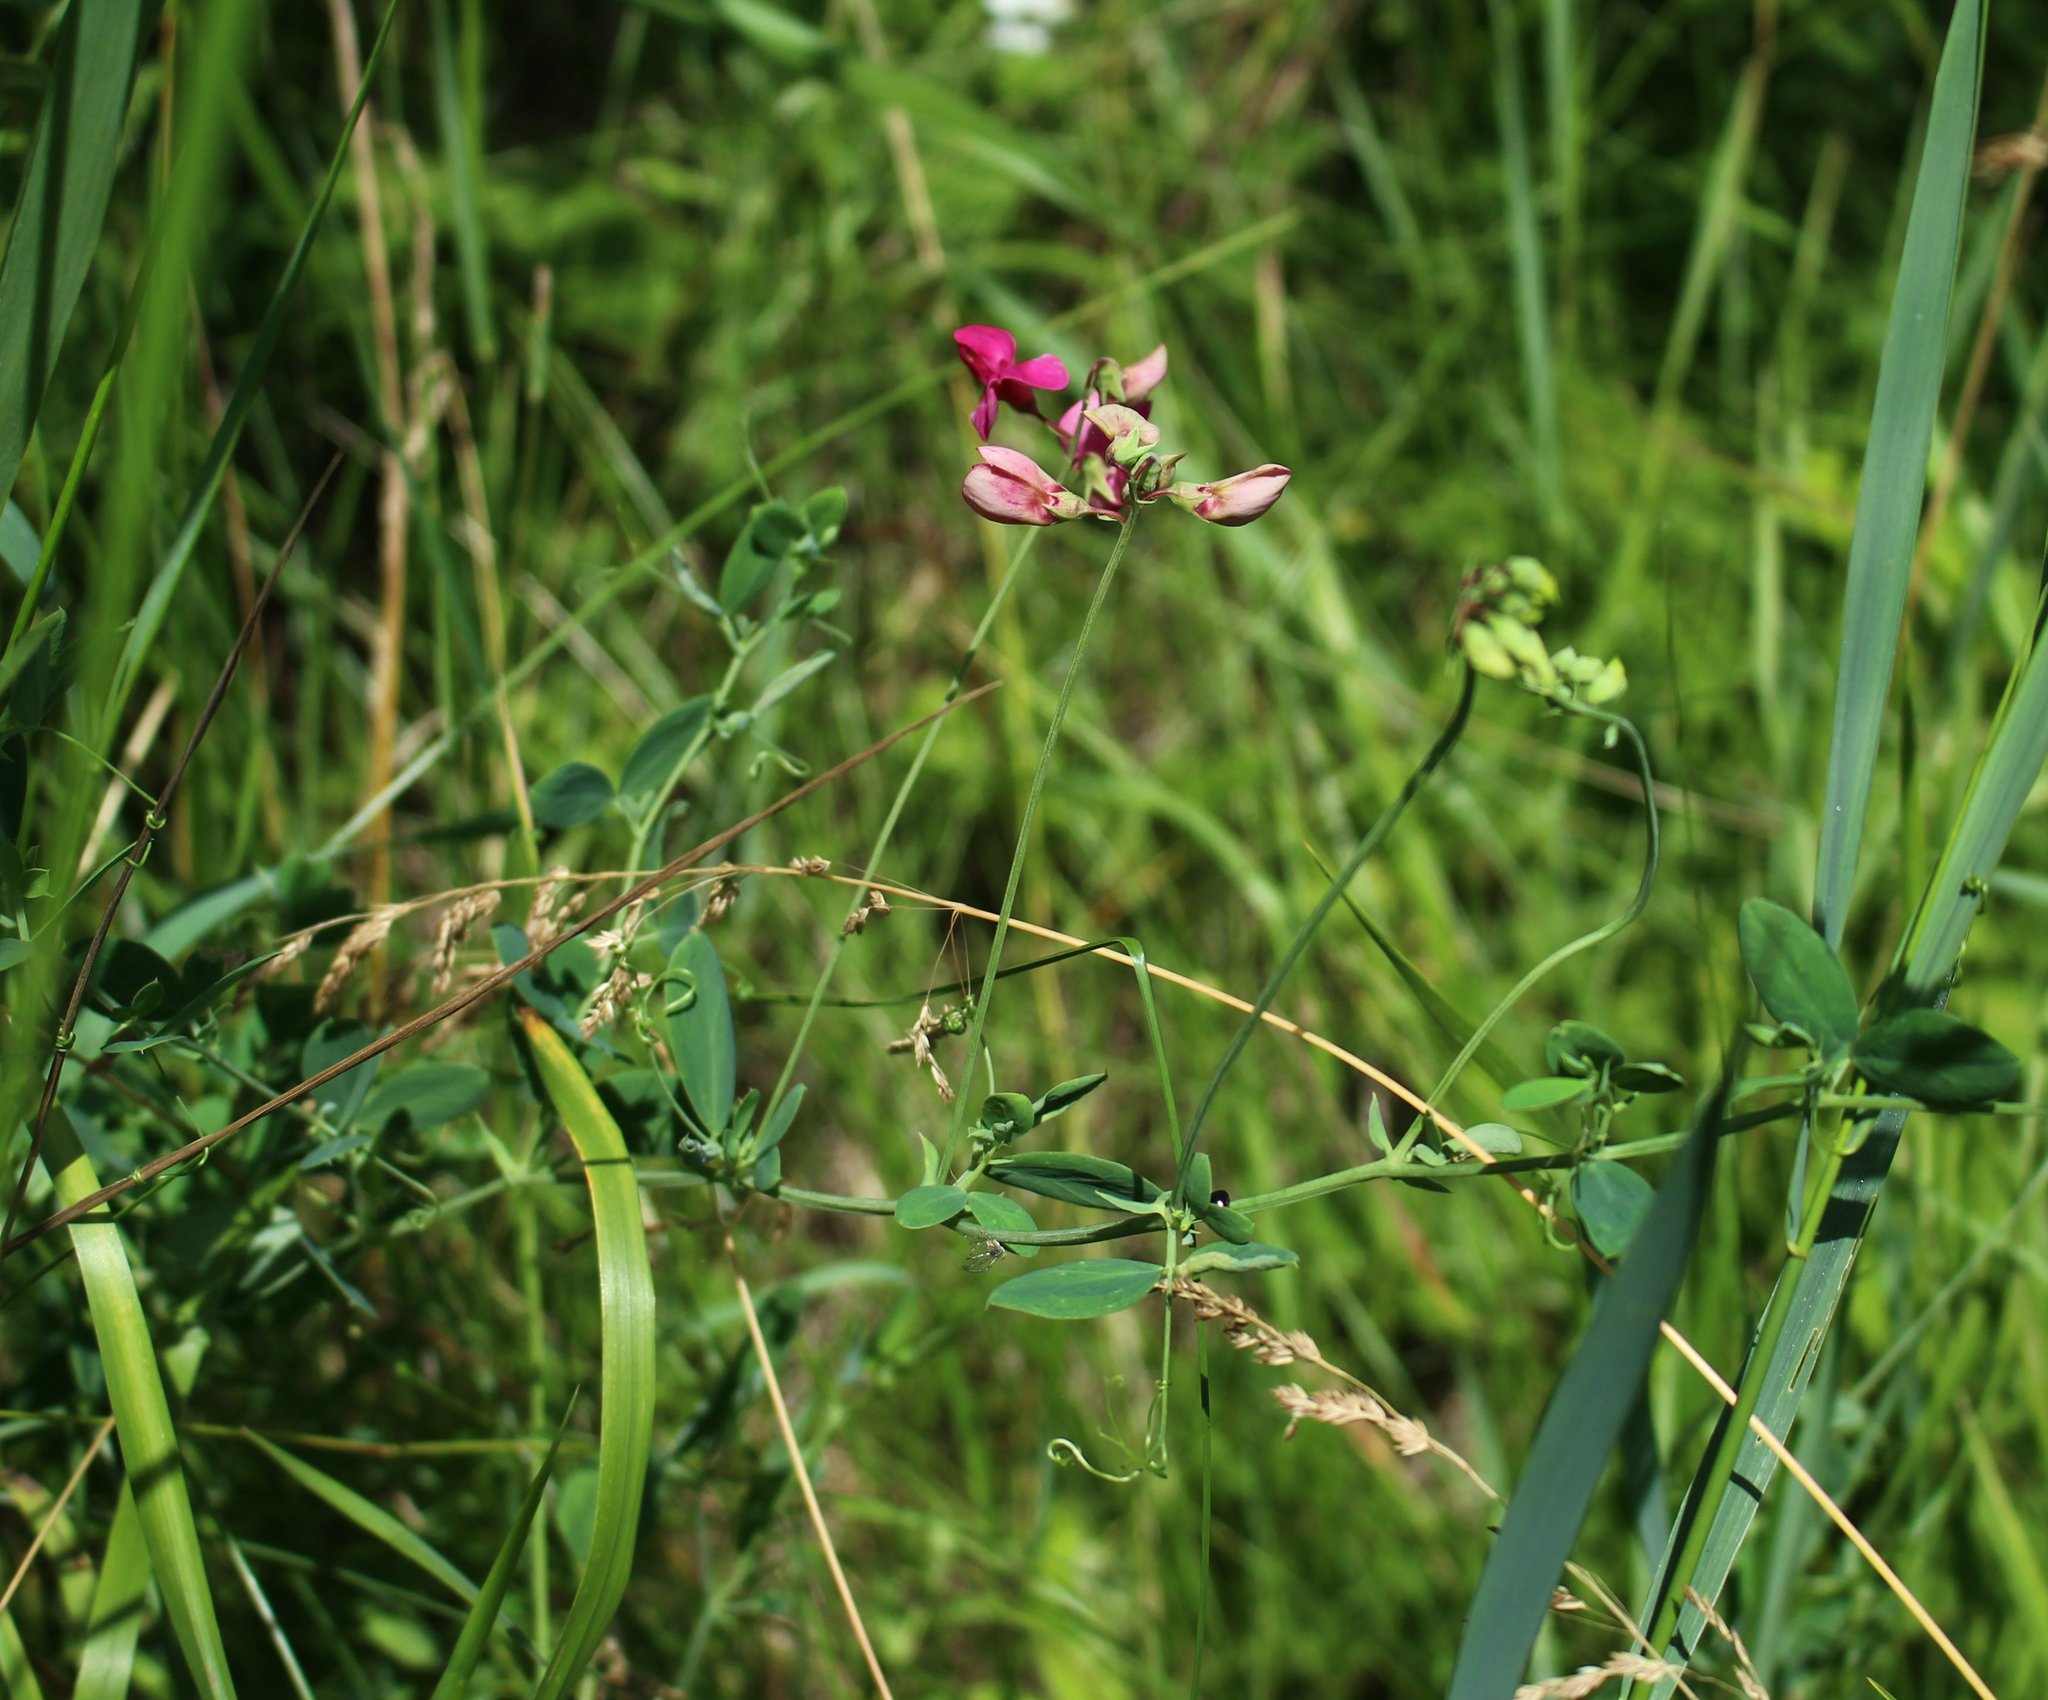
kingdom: Plantae
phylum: Tracheophyta
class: Magnoliopsida
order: Fabales
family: Fabaceae
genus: Lathyrus
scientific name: Lathyrus tuberosus
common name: Tuberous pea
